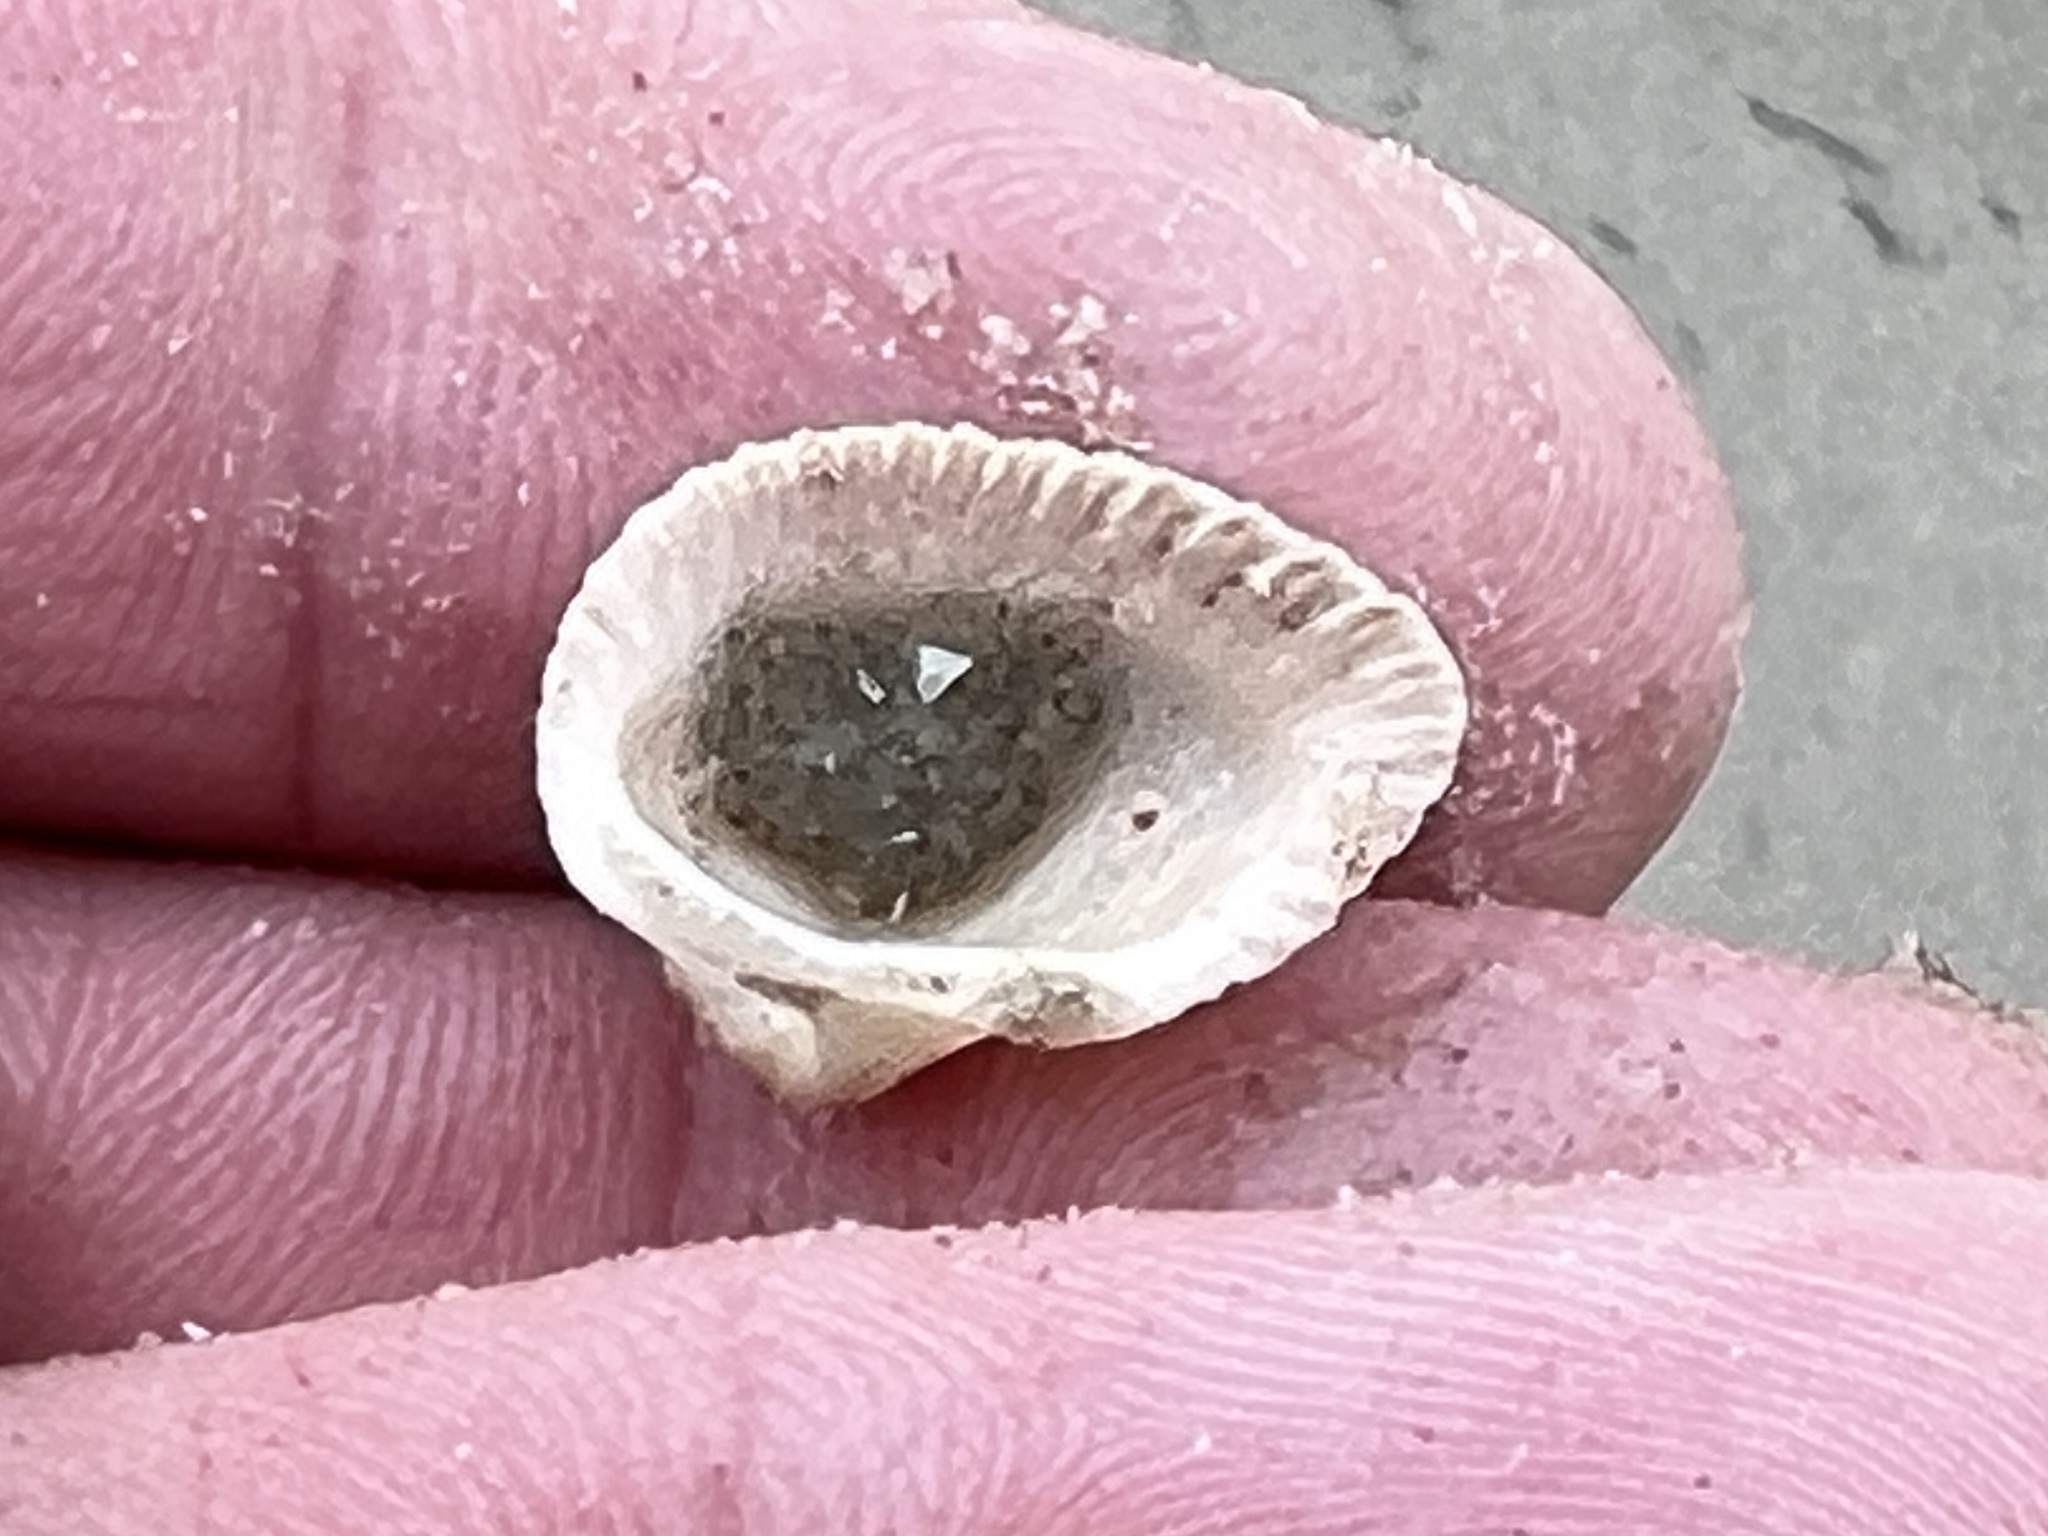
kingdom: Animalia
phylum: Mollusca
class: Bivalvia
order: Arcida
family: Noetiidae
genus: Noetia
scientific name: Noetia ponderosa
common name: Ponderous ark
